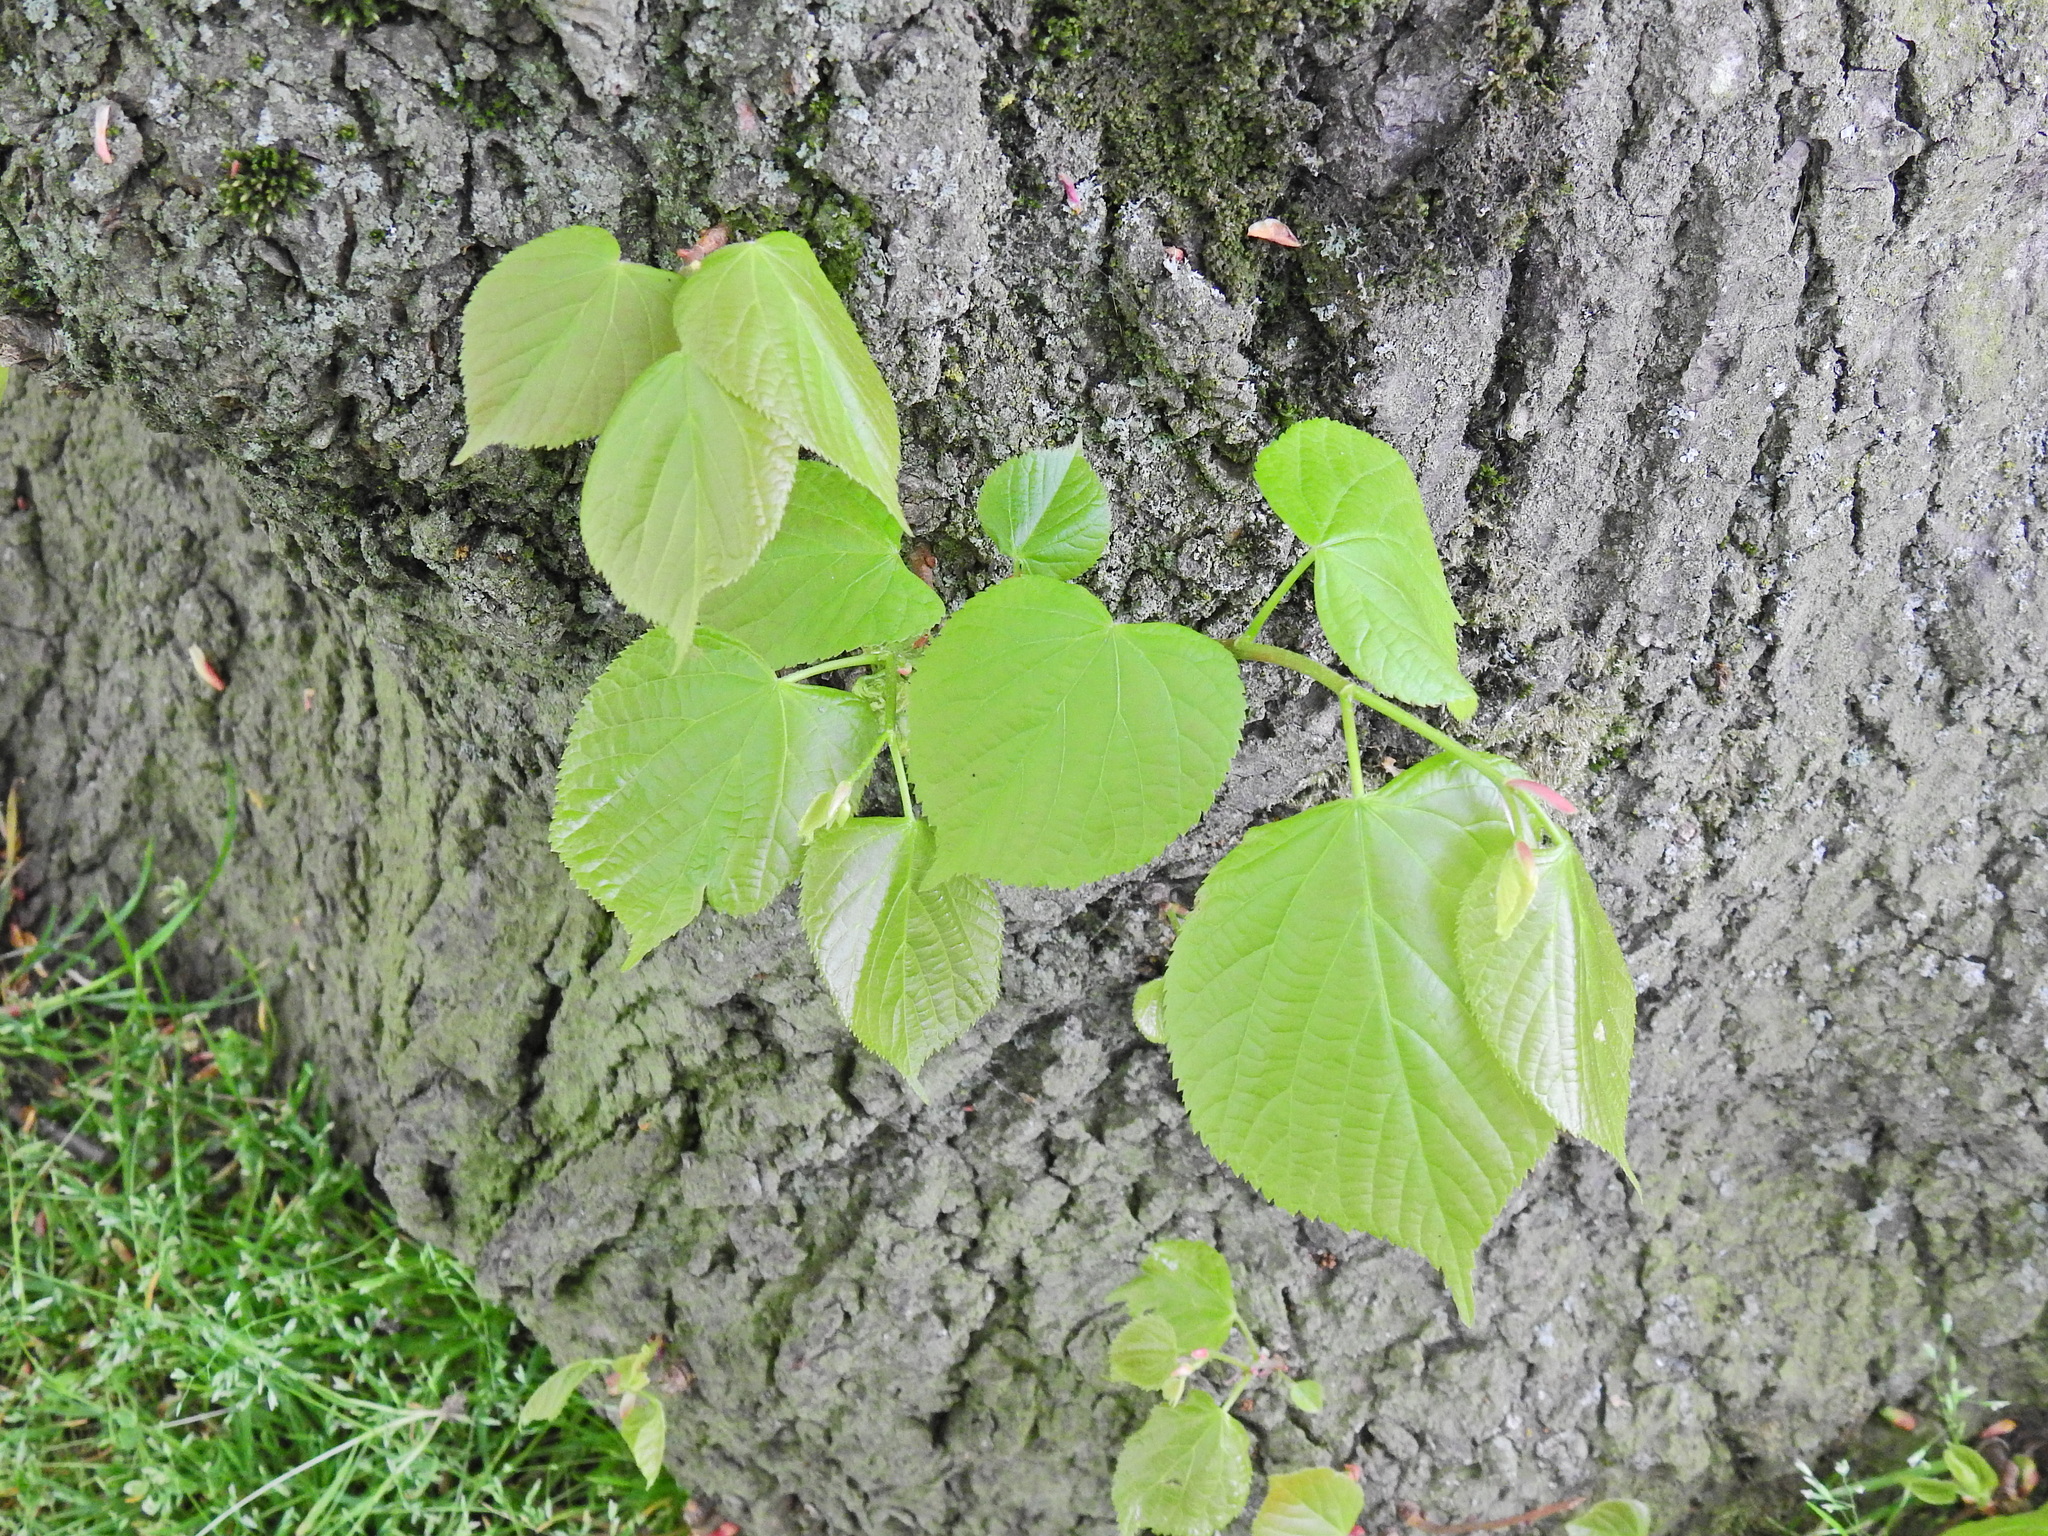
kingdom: Plantae
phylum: Tracheophyta
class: Magnoliopsida
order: Malvales
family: Malvaceae
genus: Tilia
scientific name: Tilia europaea
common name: European linden
